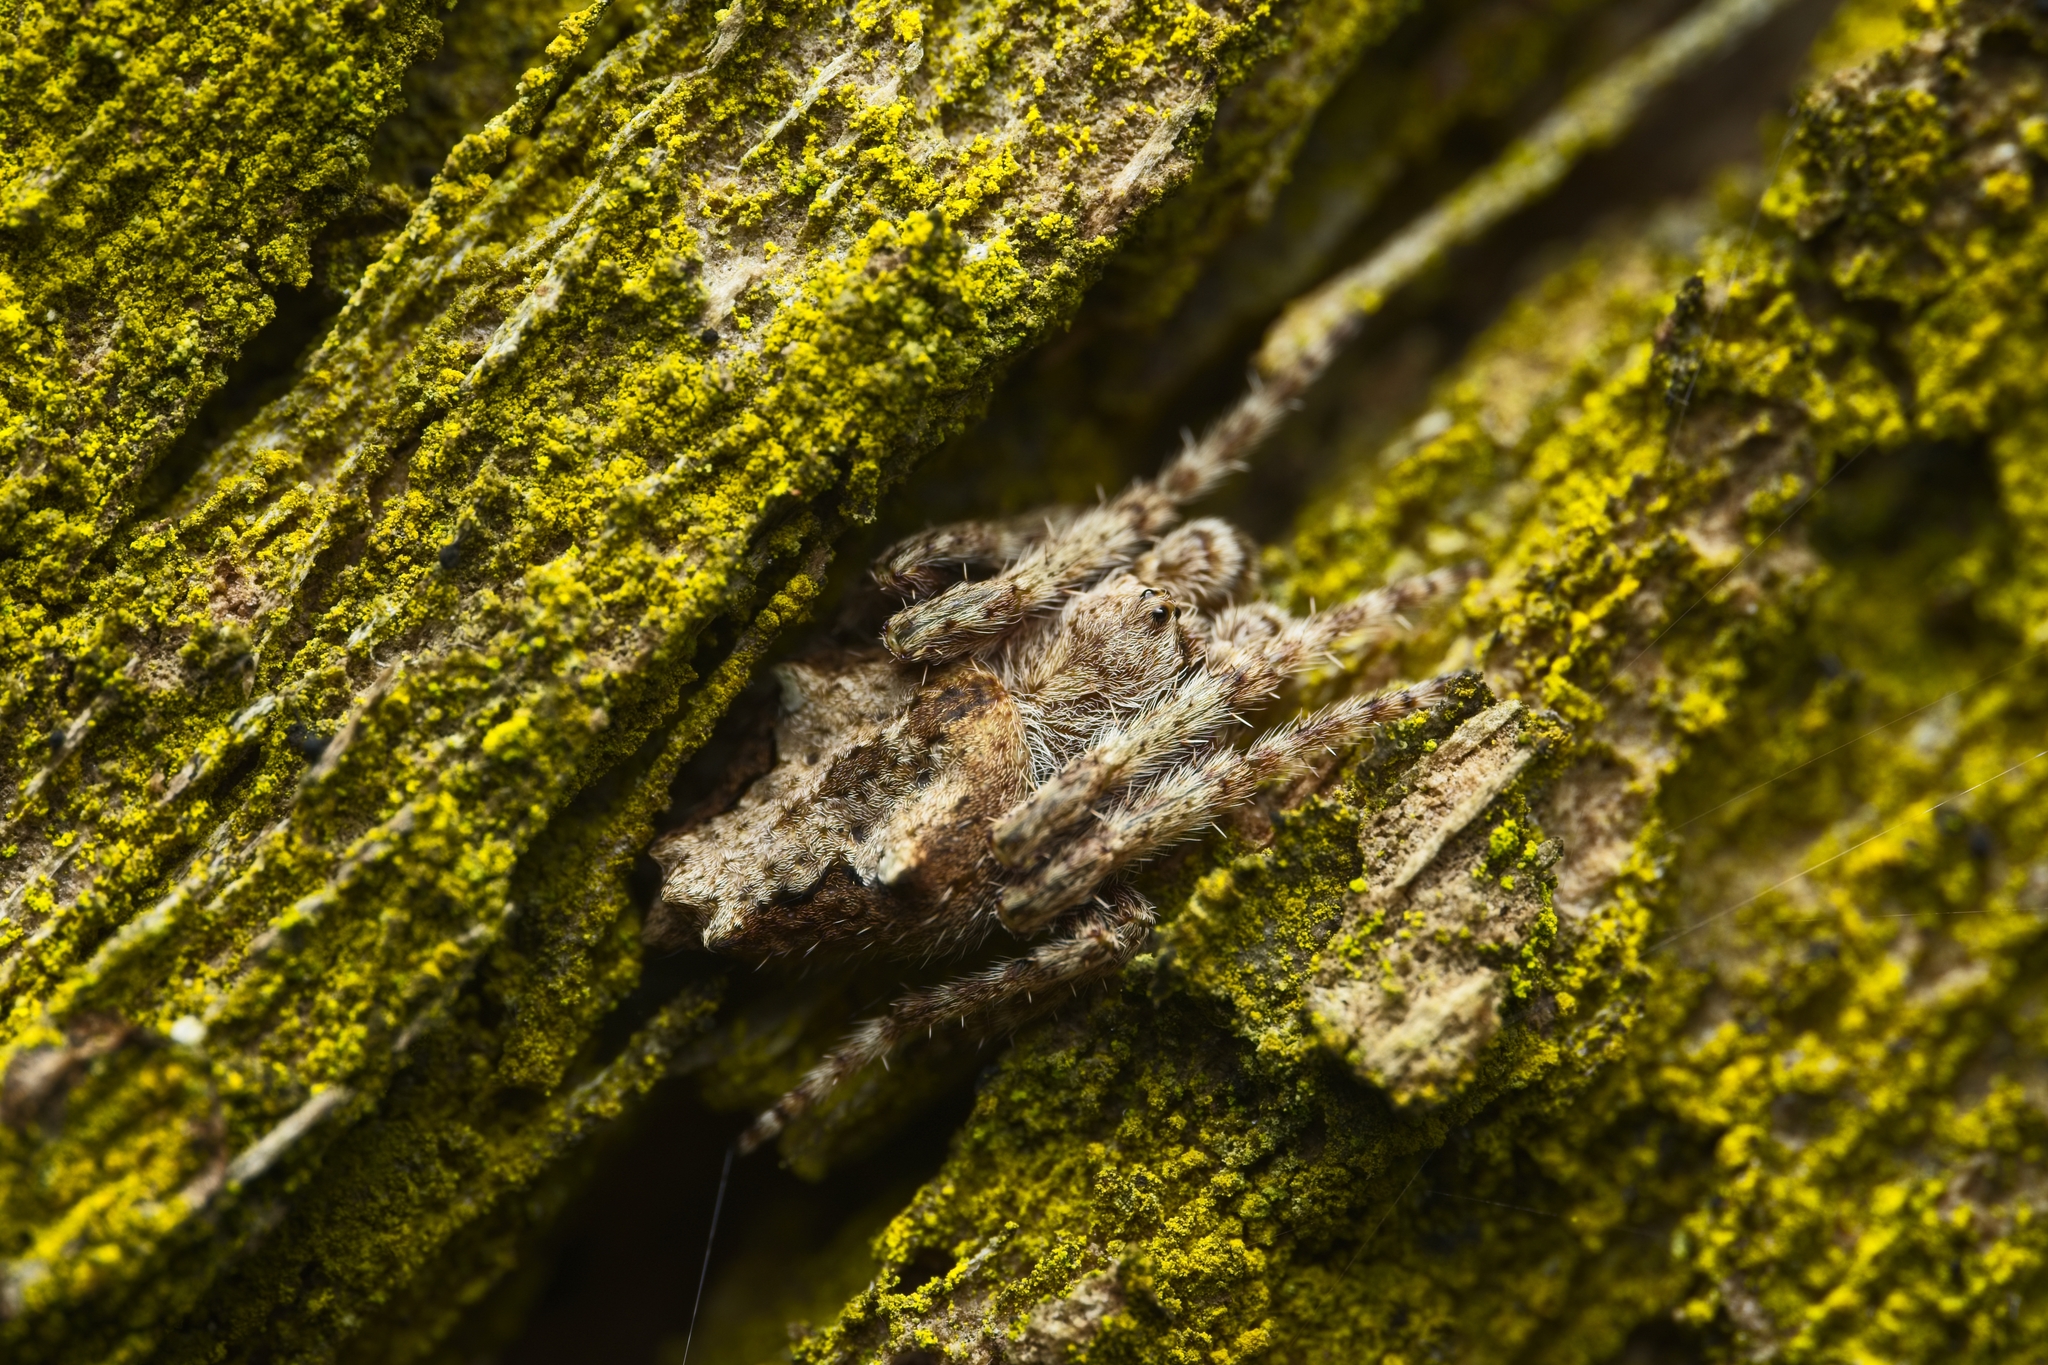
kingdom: Animalia
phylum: Arthropoda
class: Arachnida
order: Araneae
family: Araneidae
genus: Eriophora
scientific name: Eriophora pustulosa
